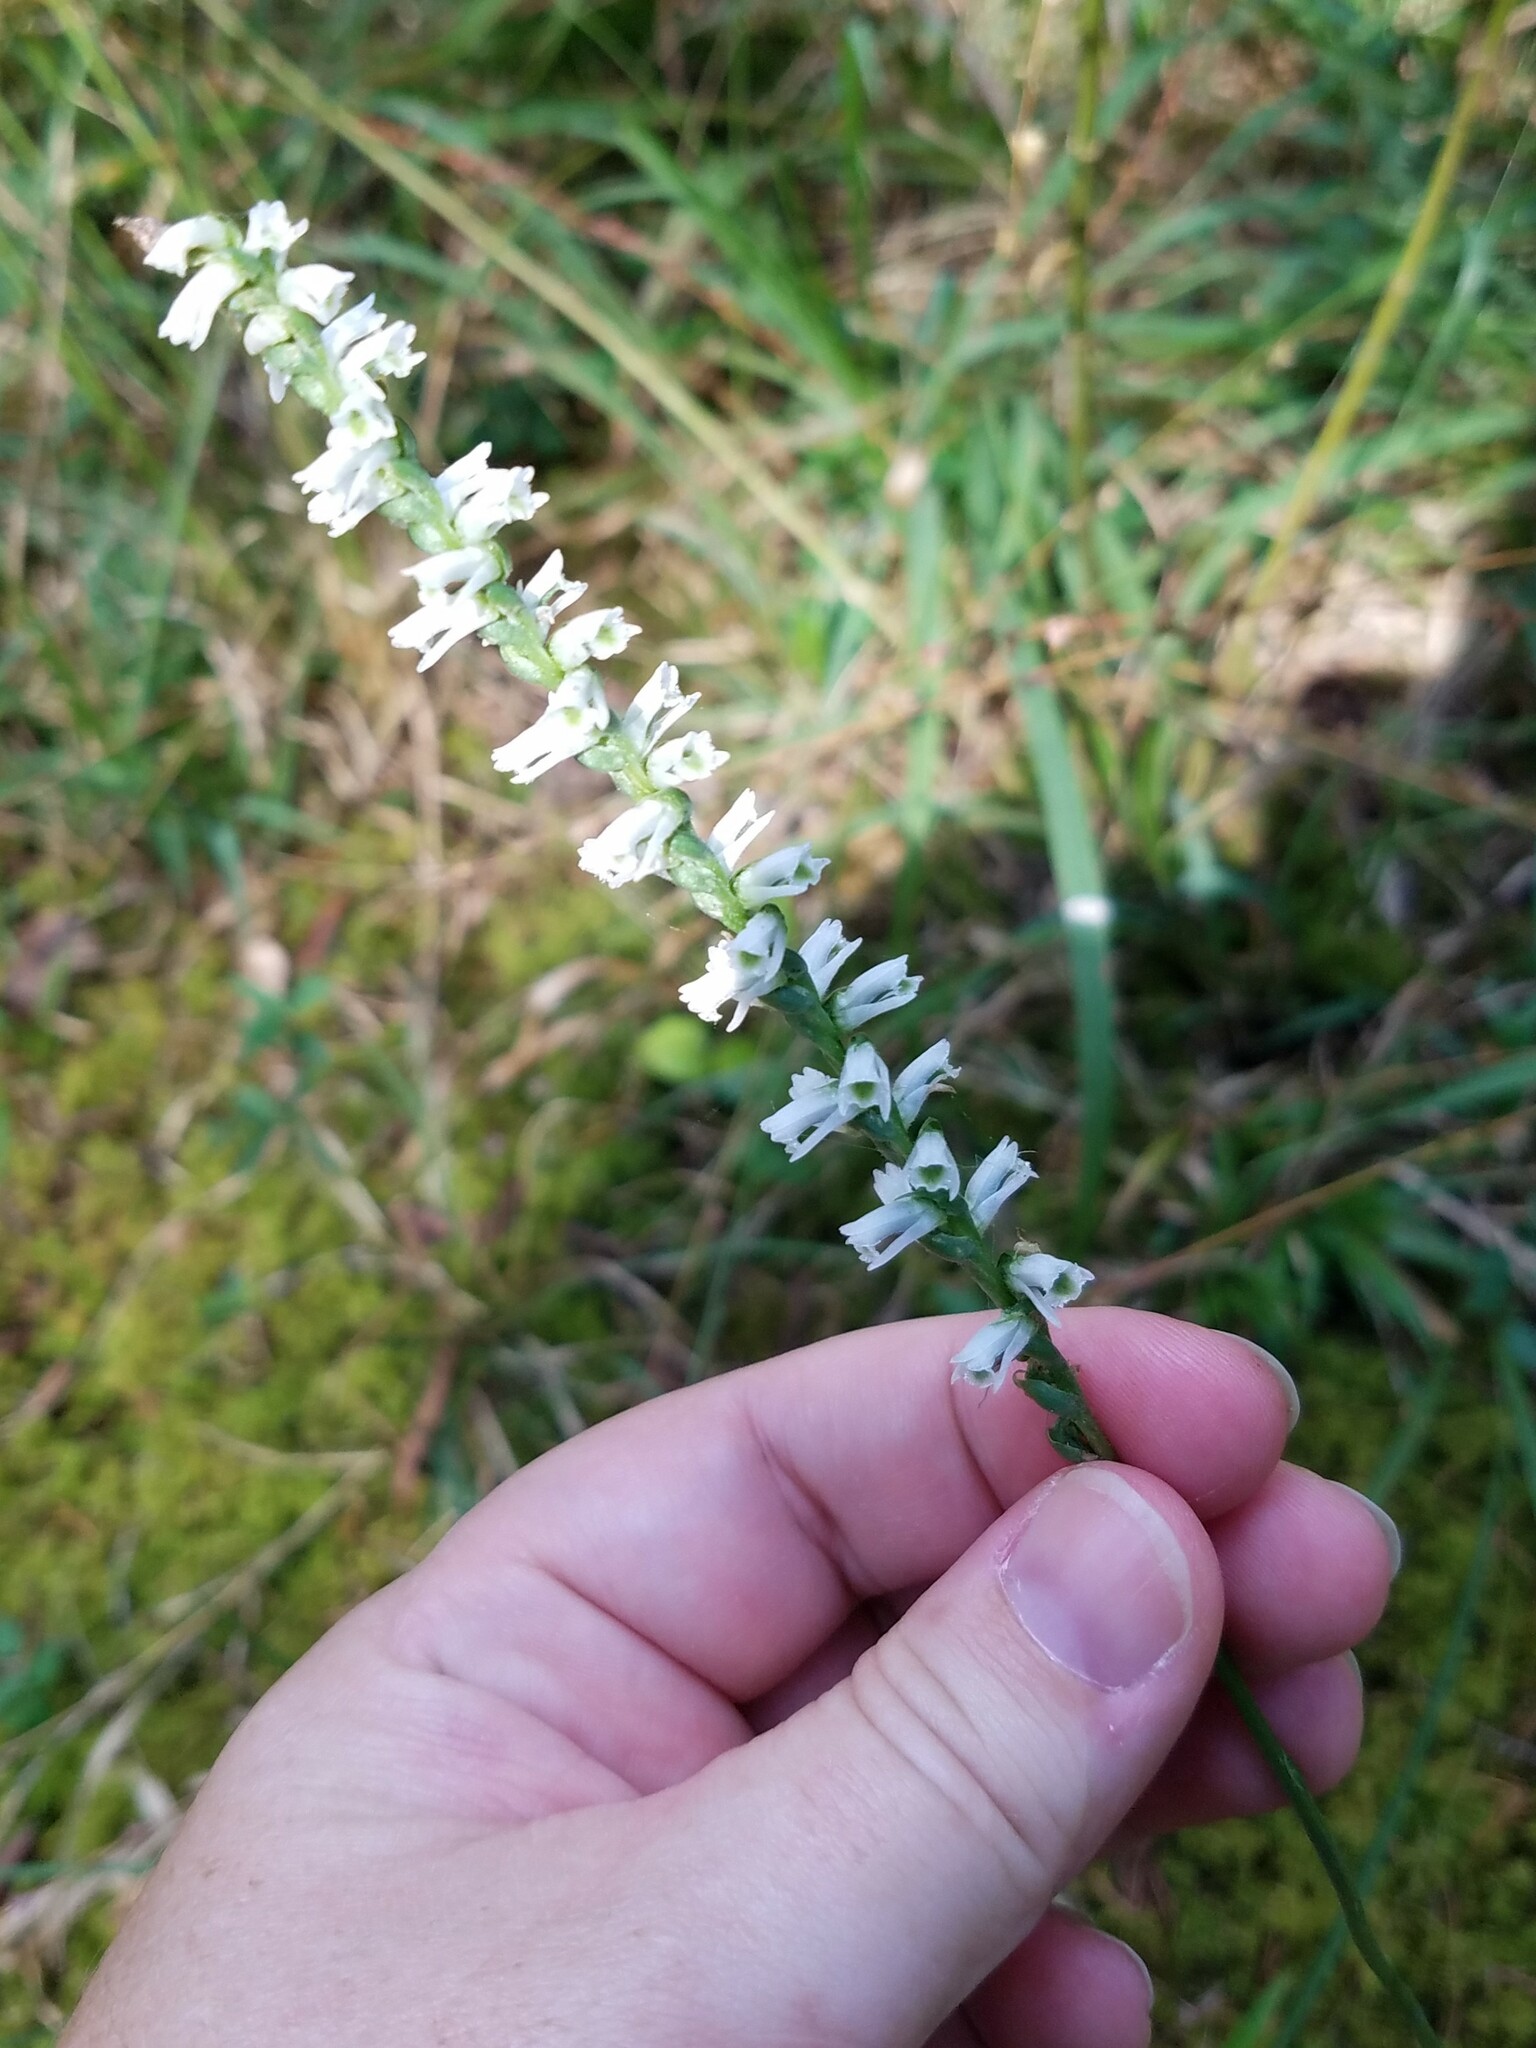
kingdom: Plantae
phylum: Tracheophyta
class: Liliopsida
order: Asparagales
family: Orchidaceae
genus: Spiranthes
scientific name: Spiranthes lacera
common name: Northern slender ladies'-tresses
